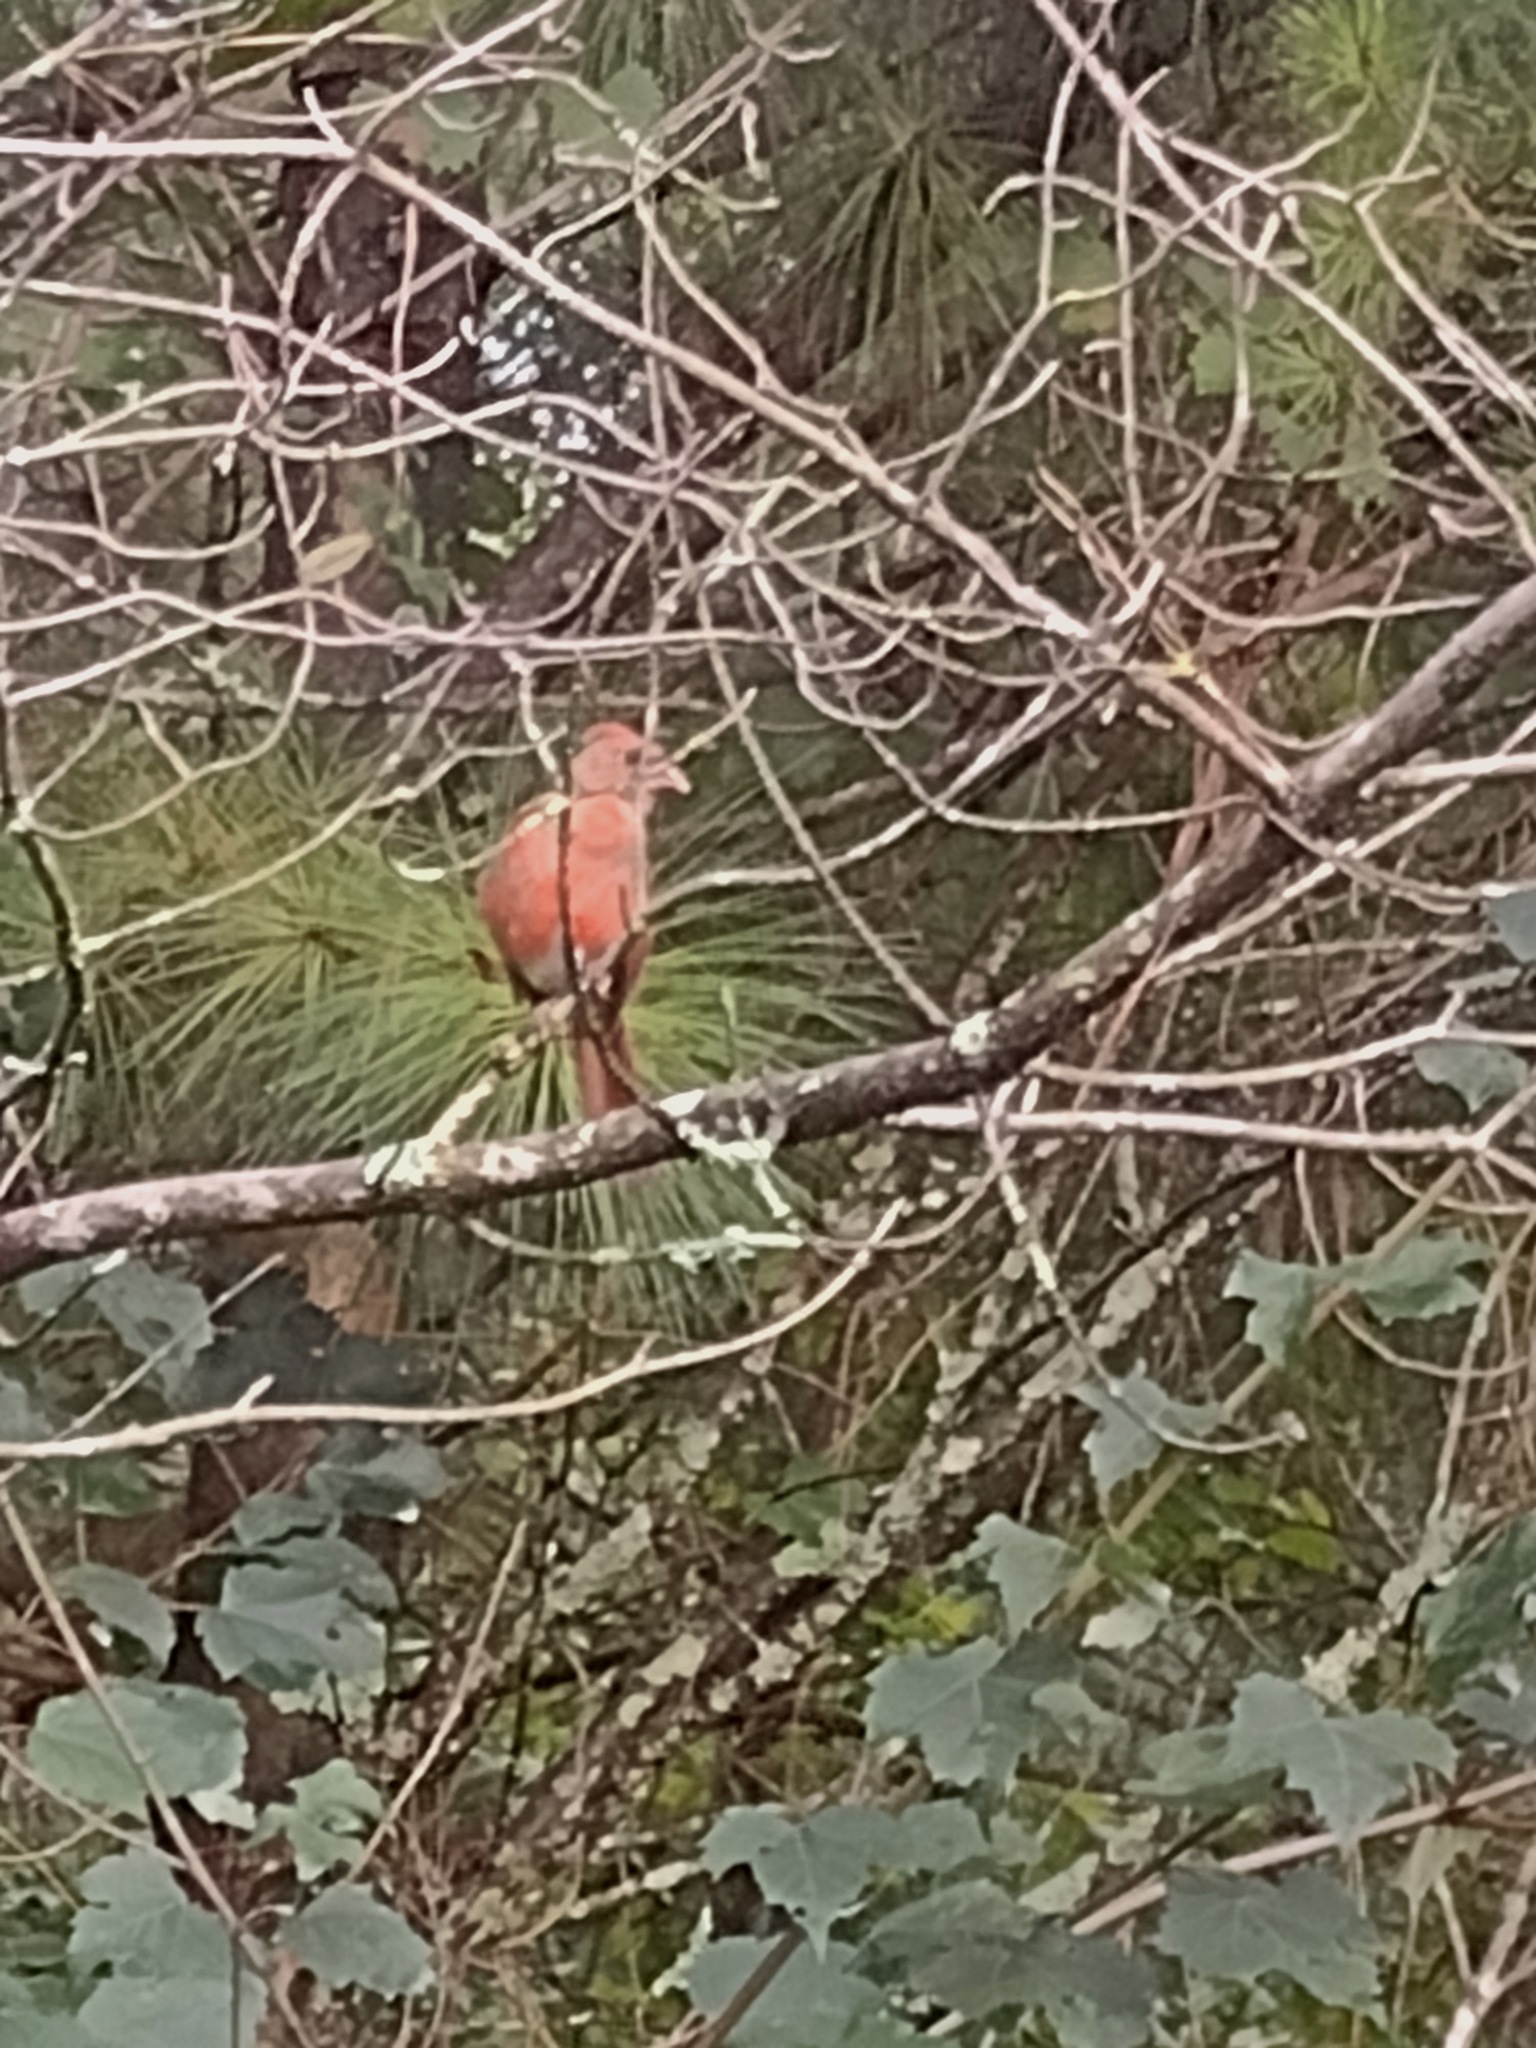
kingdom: Animalia
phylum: Chordata
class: Aves
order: Passeriformes
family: Cardinalidae
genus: Cardinalis
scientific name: Cardinalis cardinalis
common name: Northern cardinal
